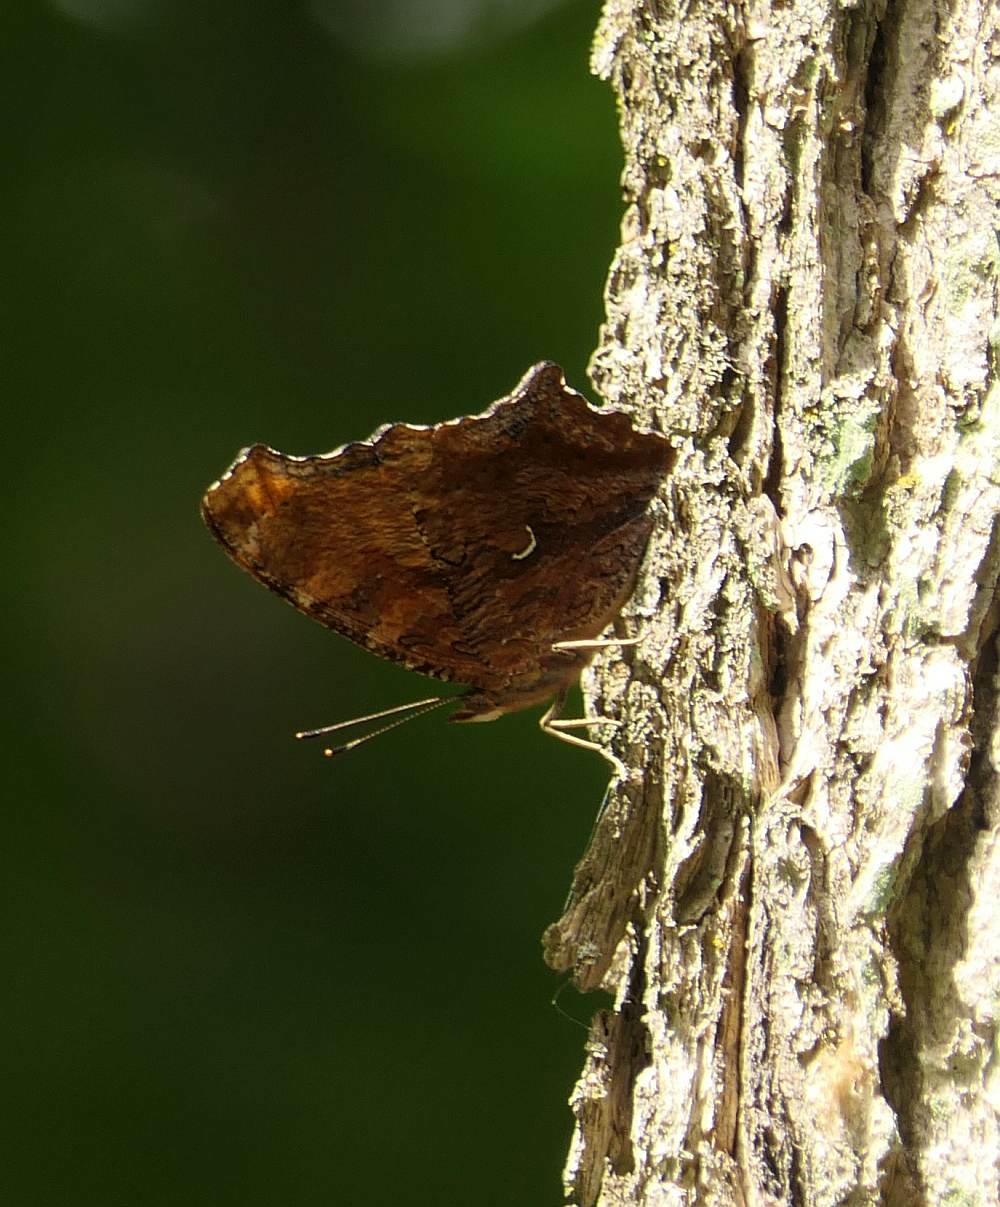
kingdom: Animalia
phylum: Arthropoda
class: Insecta
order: Lepidoptera
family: Nymphalidae
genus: Polygonia
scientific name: Polygonia comma
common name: Eastern comma
